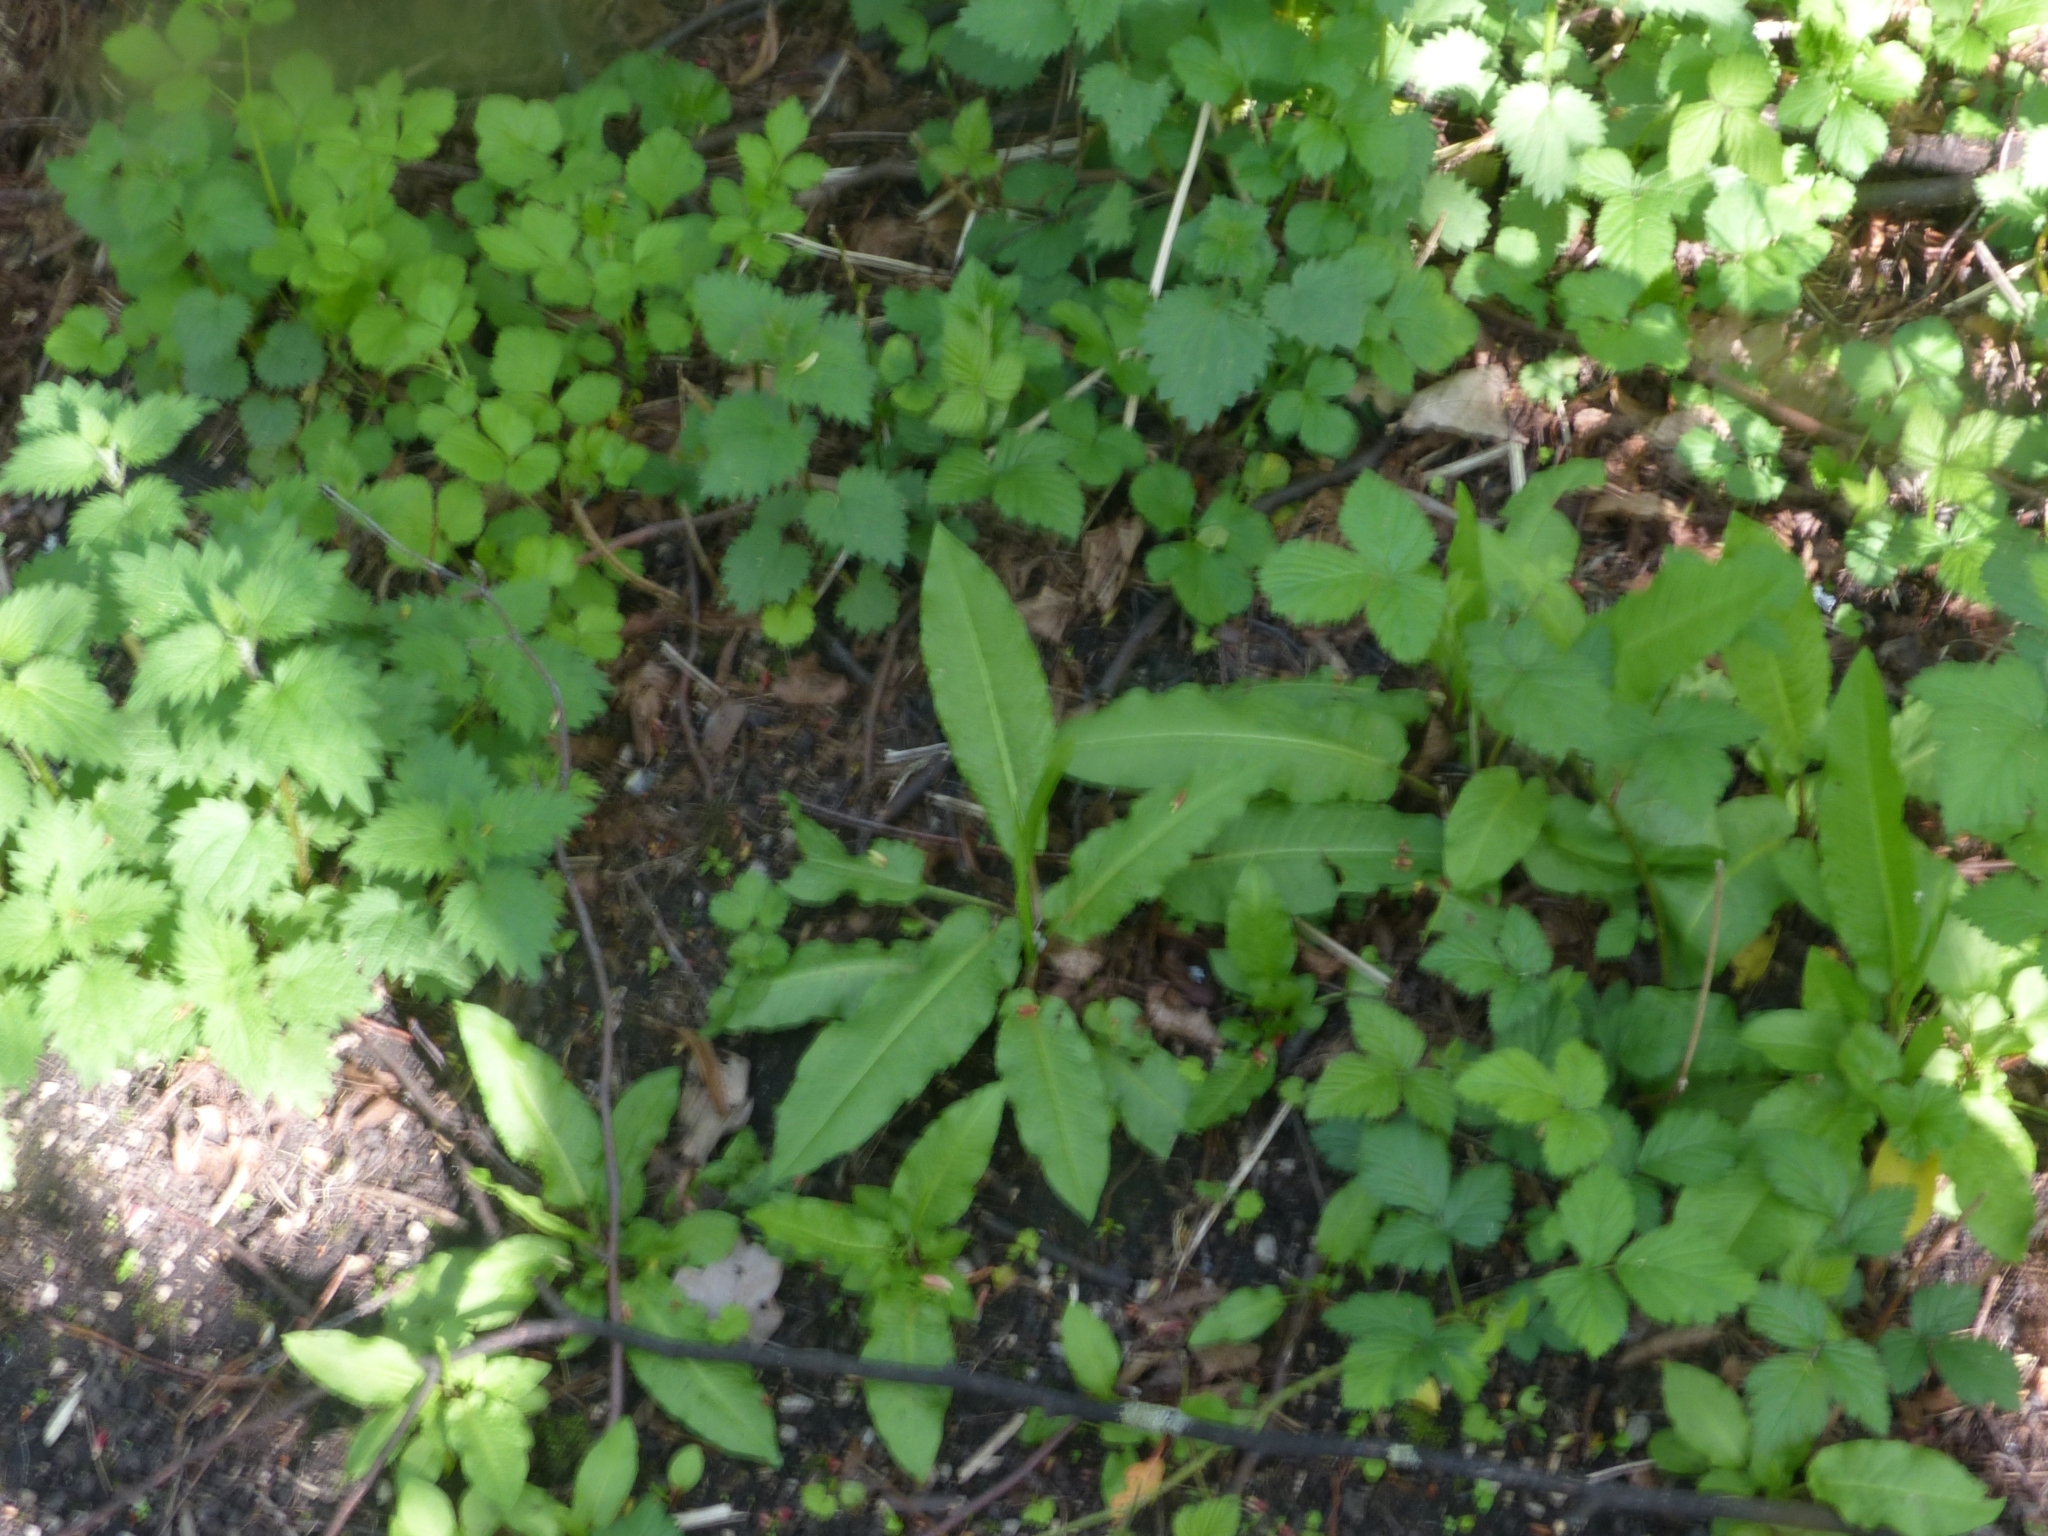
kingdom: Plantae
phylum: Tracheophyta
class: Magnoliopsida
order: Caryophyllales
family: Polygonaceae
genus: Rumex
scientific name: Rumex sanguineus
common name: Wood dock
